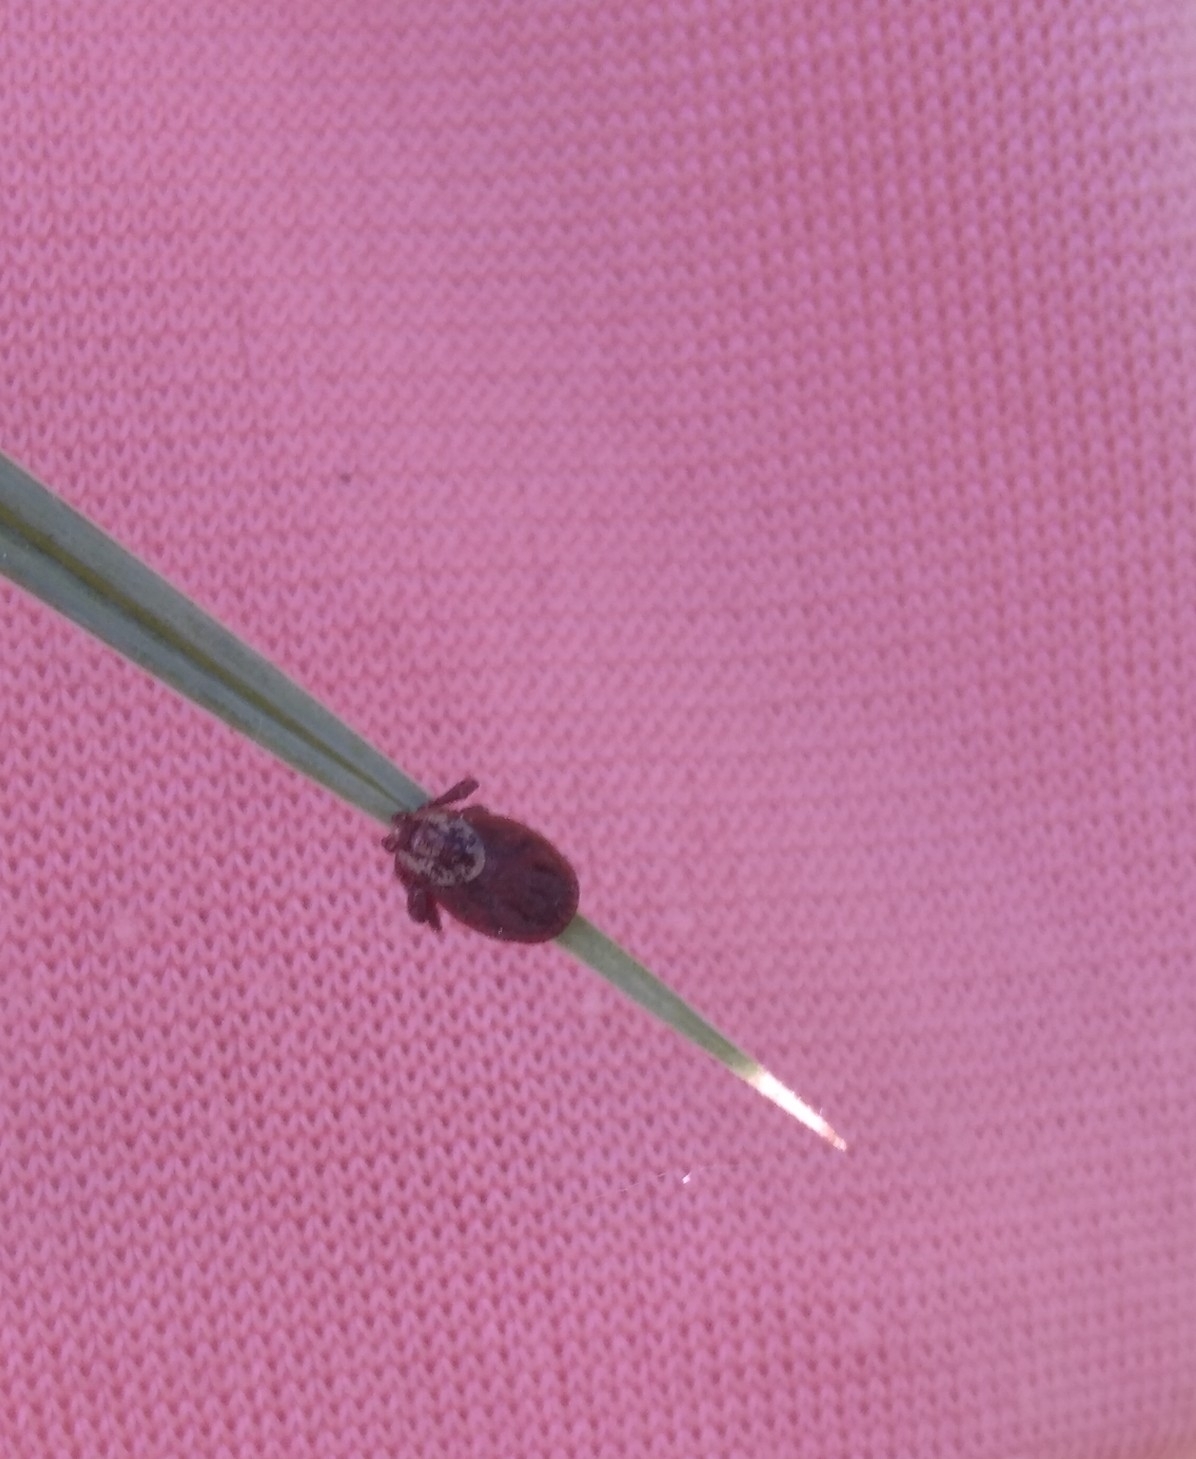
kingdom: Animalia
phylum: Arthropoda
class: Arachnida
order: Ixodida
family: Ixodidae
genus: Dermacentor
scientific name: Dermacentor reticulatus
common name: Ornate cow tick
